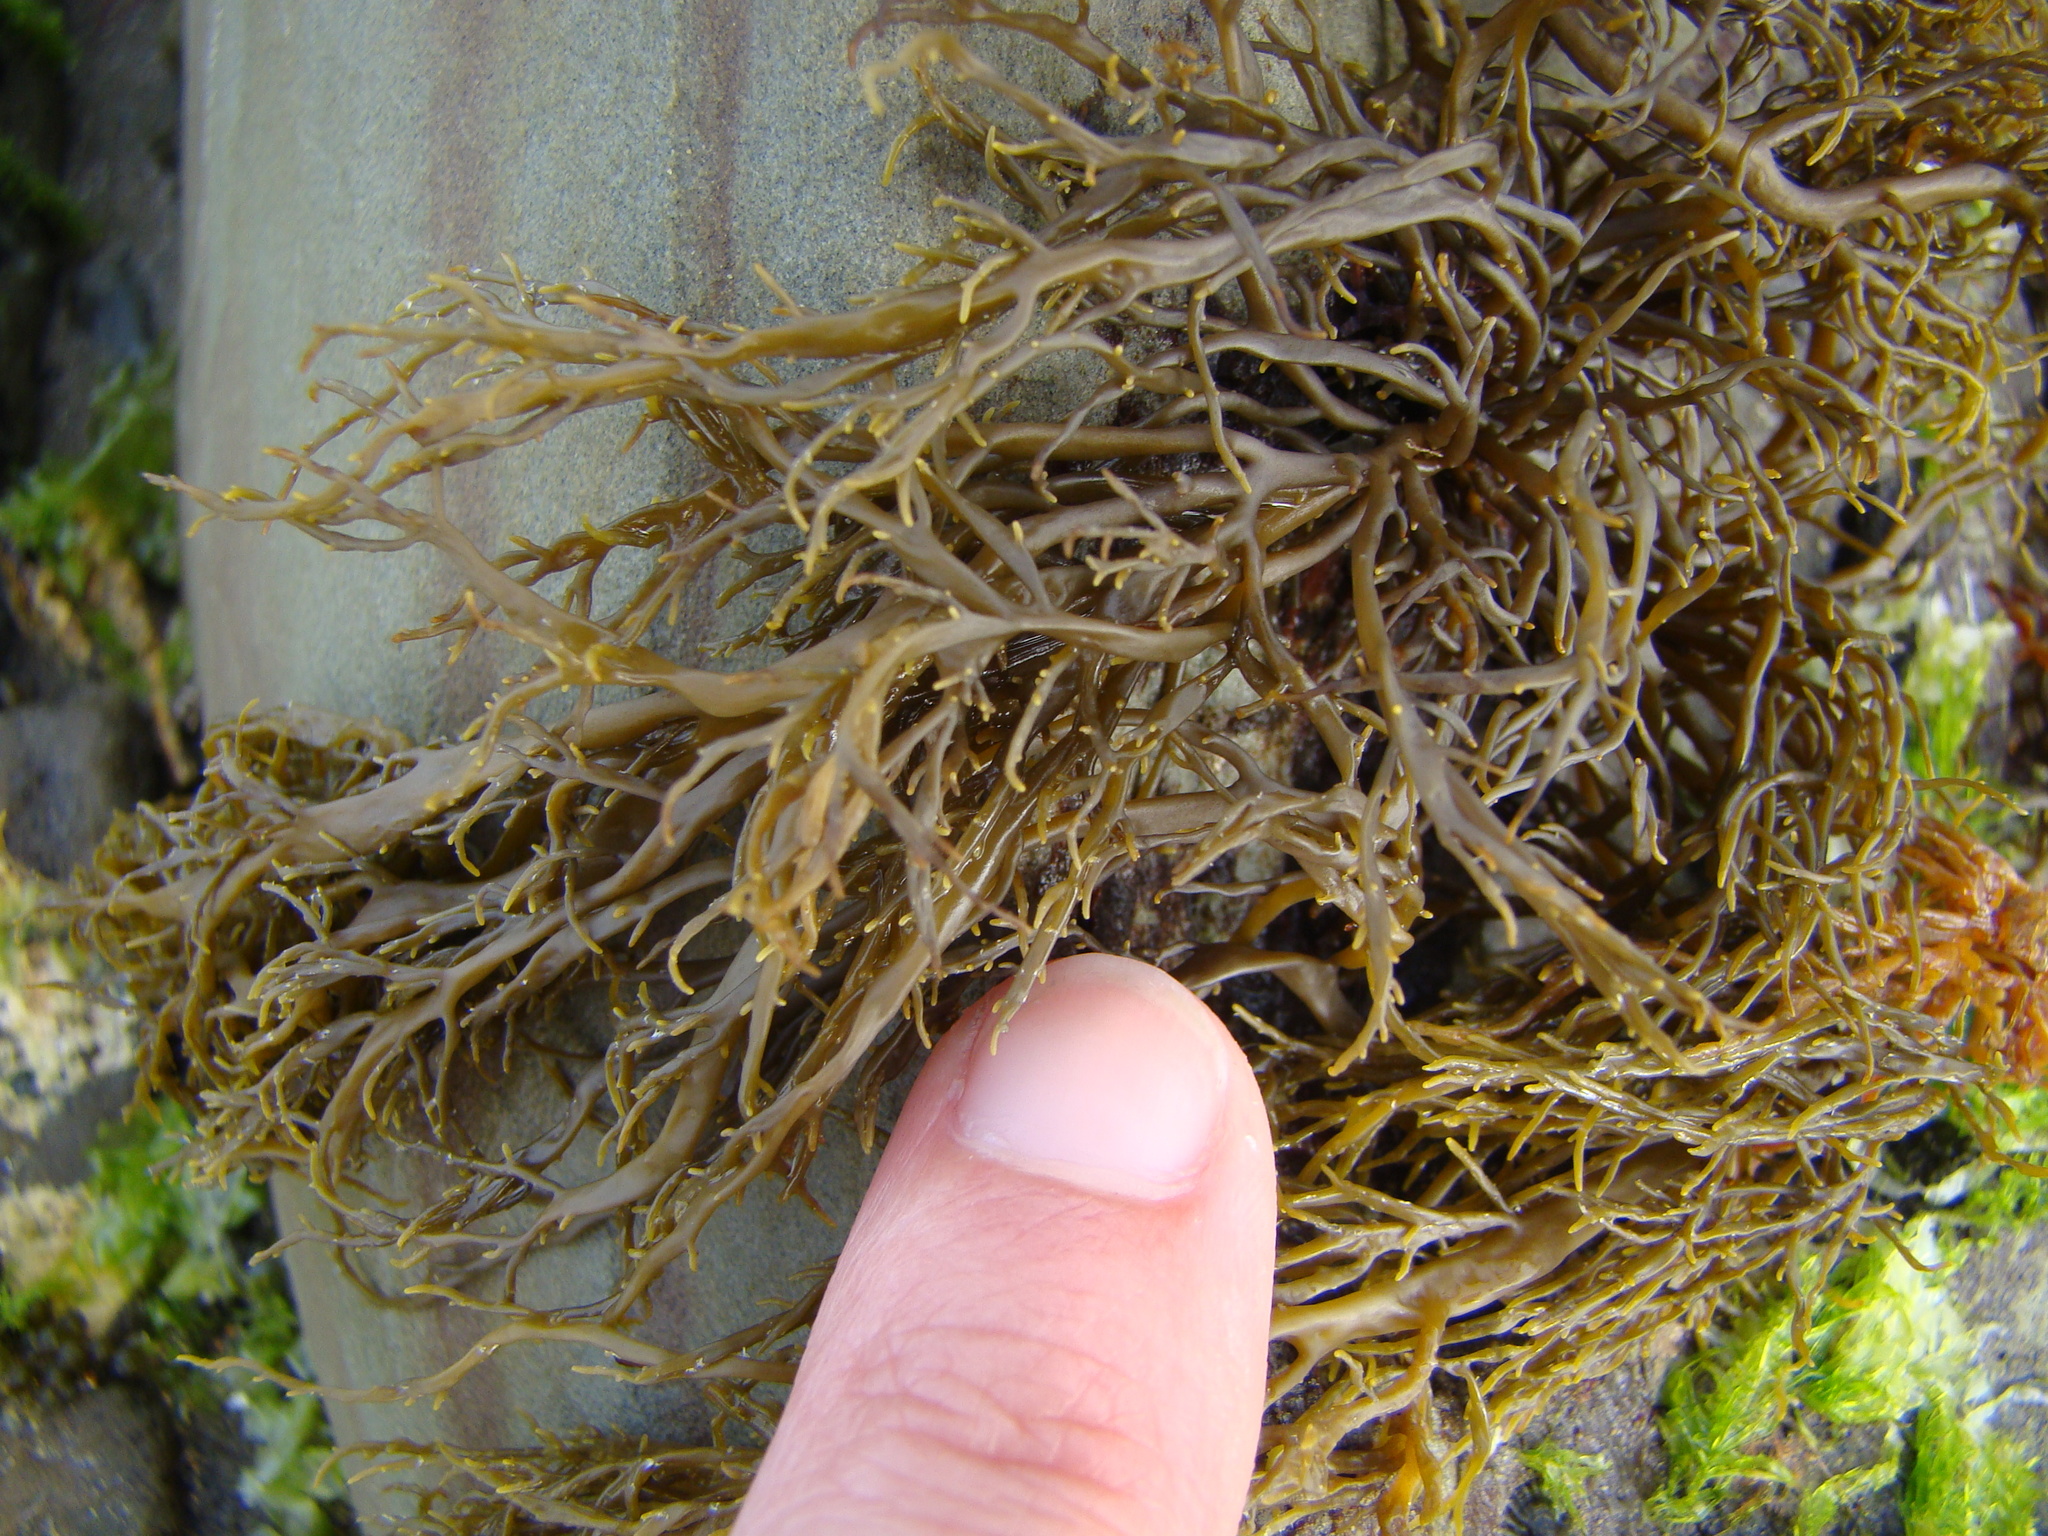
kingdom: Chromista
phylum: Ochrophyta
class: Phaeophyceae
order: Scytothamnales
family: Scytothamnaceae
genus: Scytothamnus
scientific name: Scytothamnus australis
